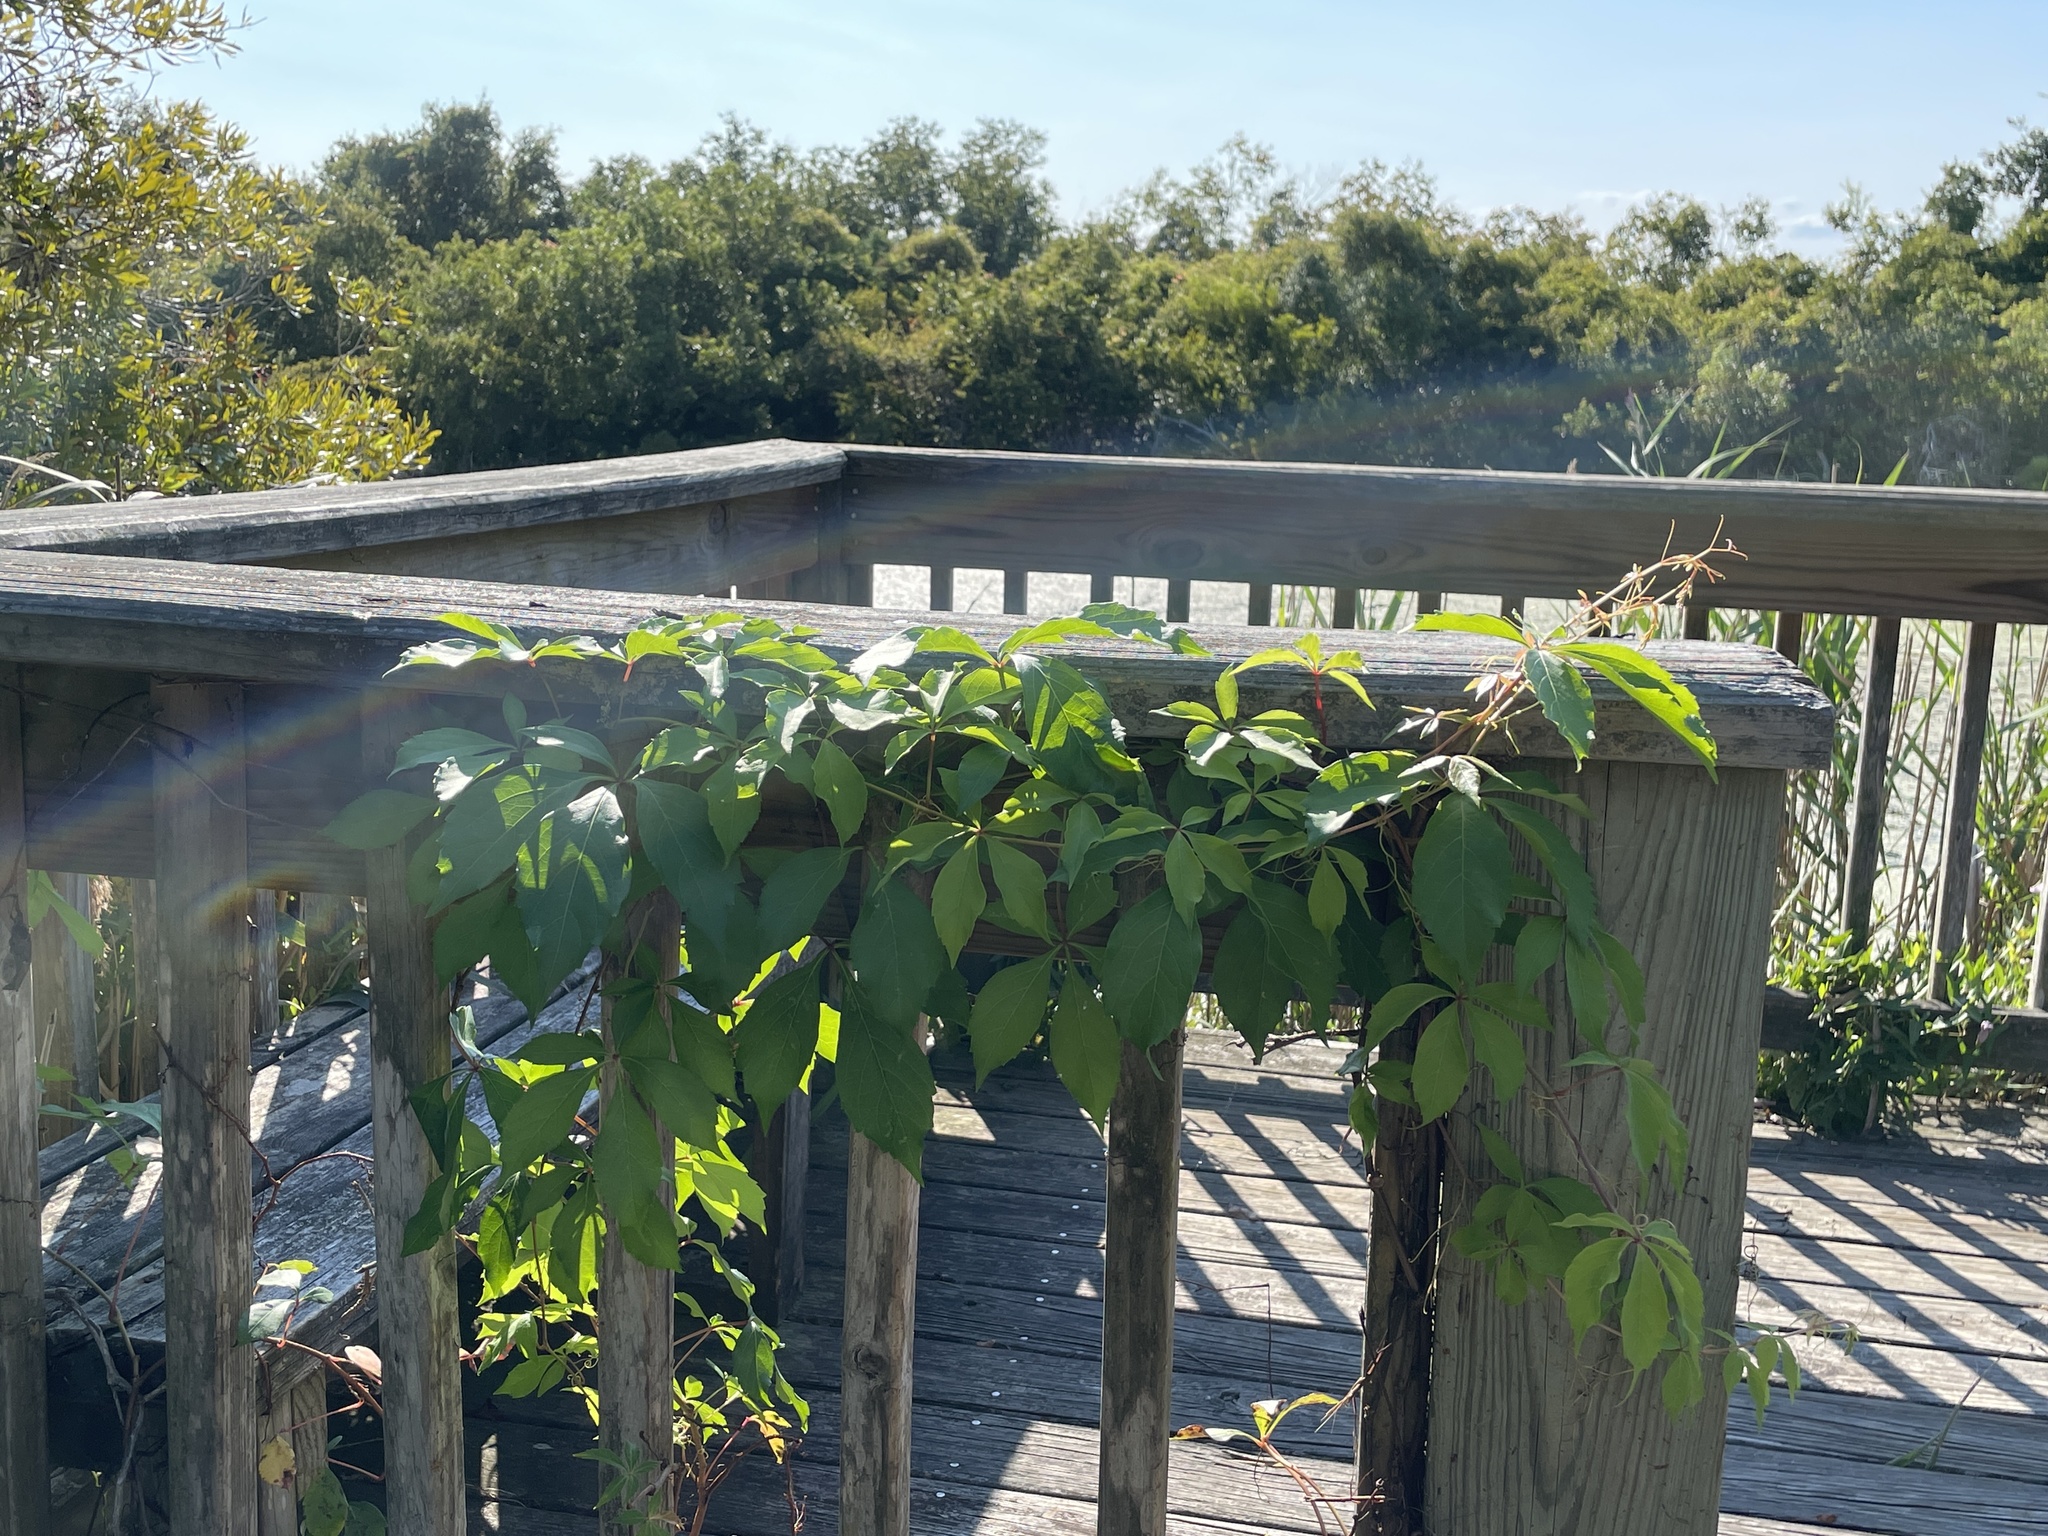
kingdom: Plantae
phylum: Tracheophyta
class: Magnoliopsida
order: Vitales
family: Vitaceae
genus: Parthenocissus
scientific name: Parthenocissus quinquefolia
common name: Virginia-creeper
